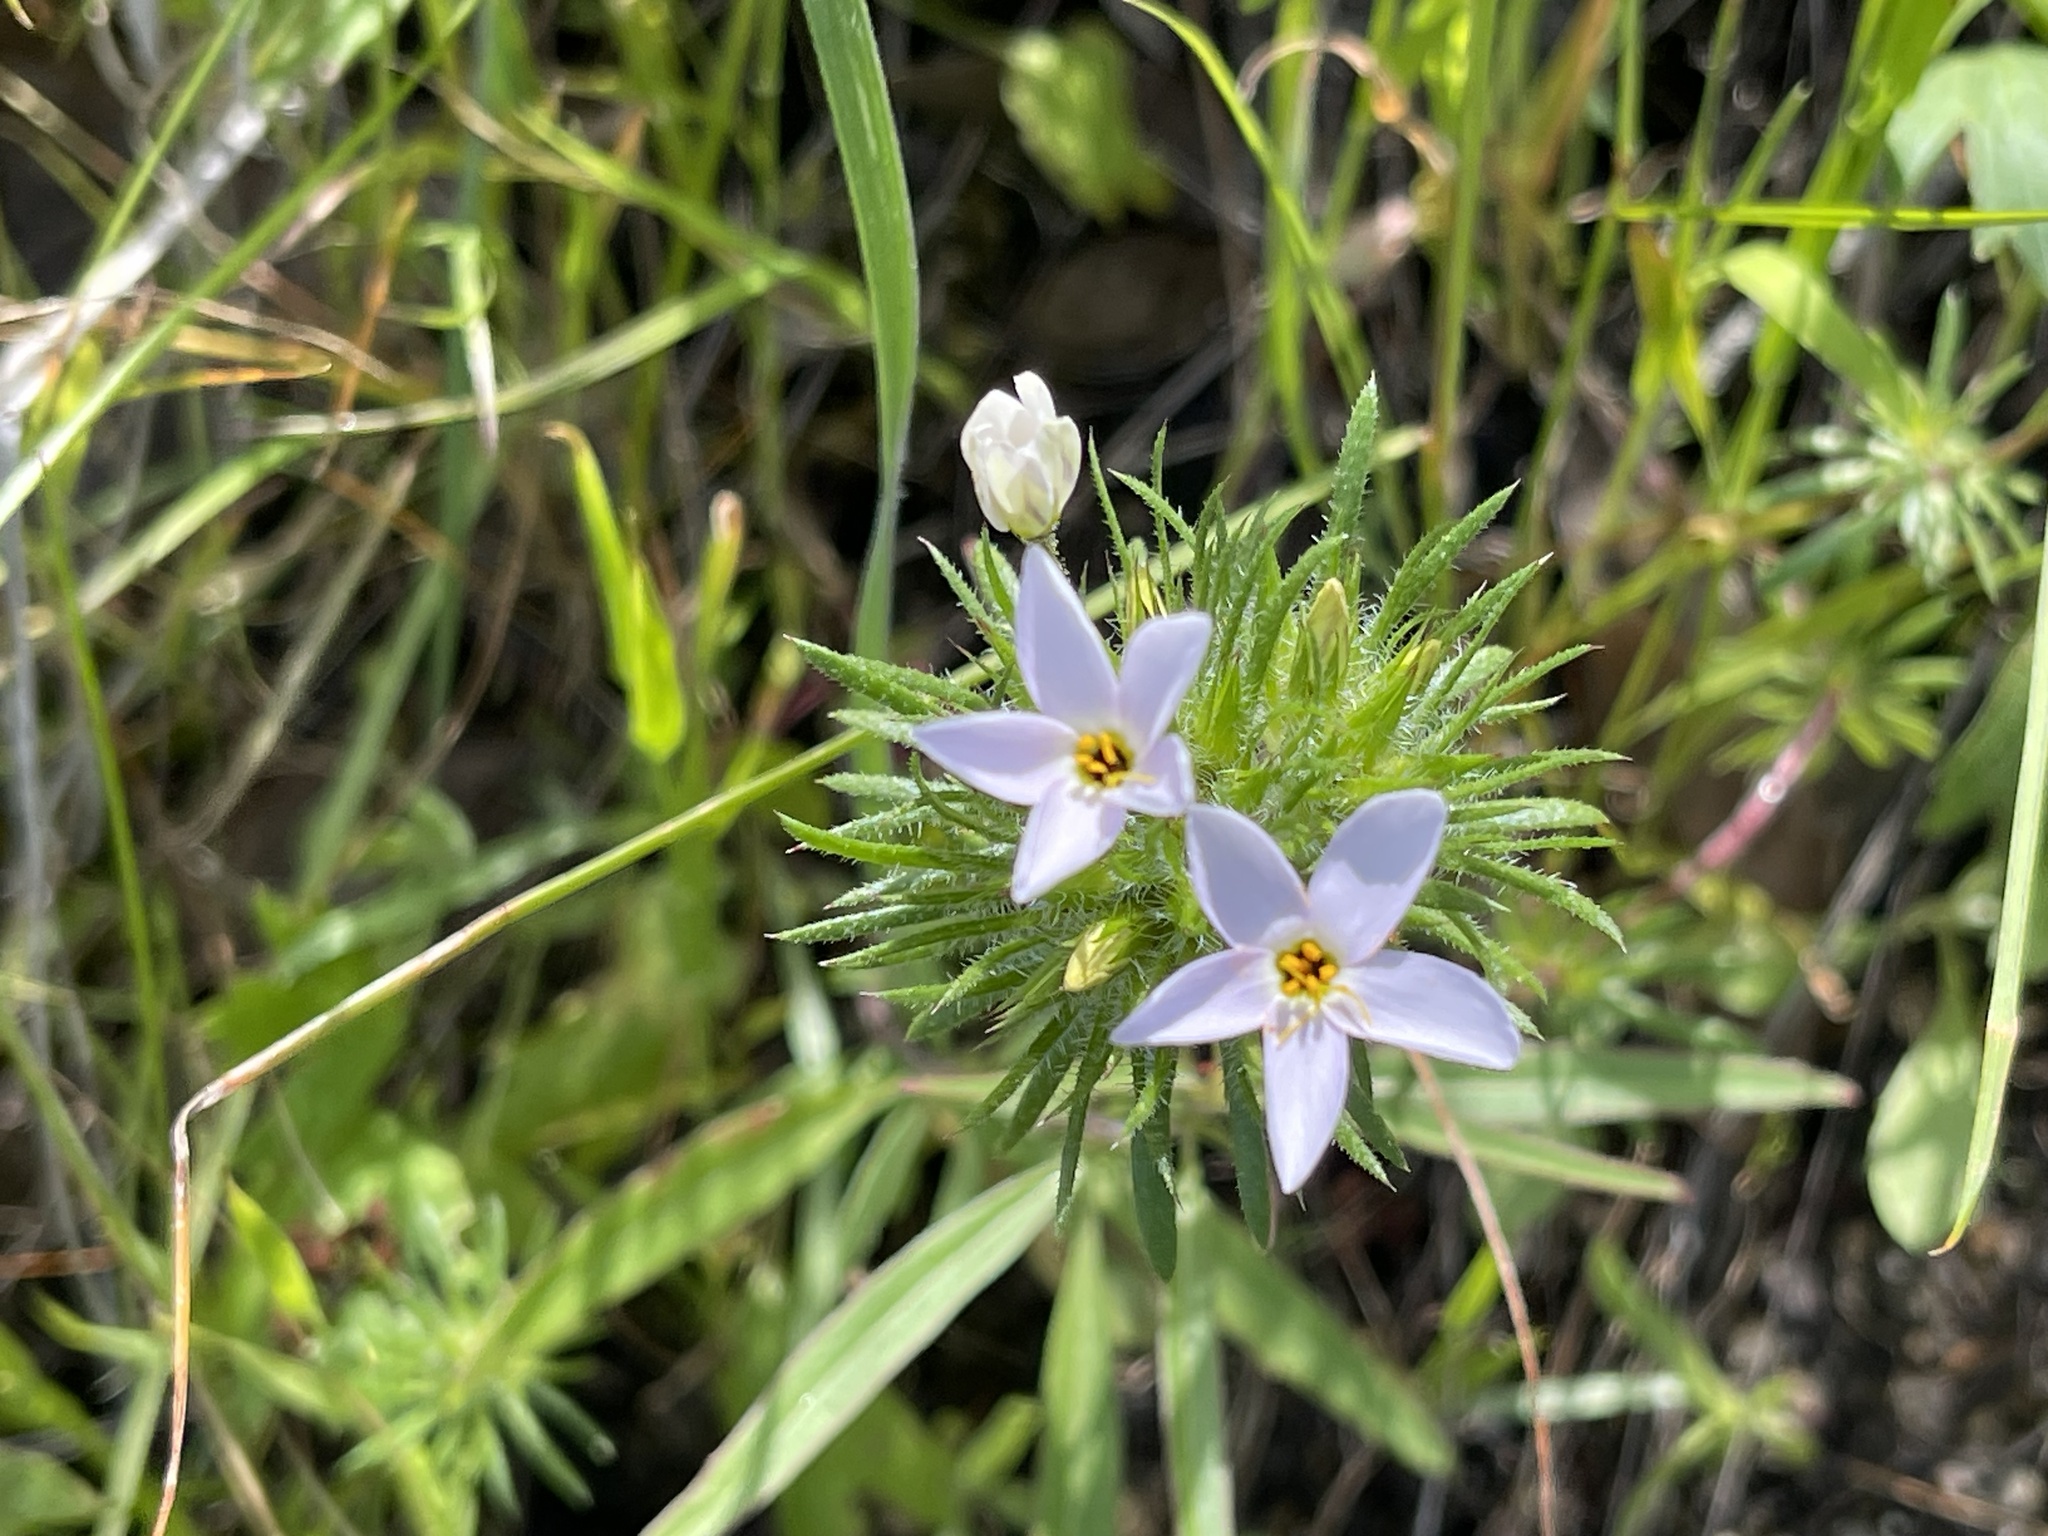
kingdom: Plantae
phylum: Tracheophyta
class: Magnoliopsida
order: Ericales
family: Polemoniaceae
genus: Leptosiphon
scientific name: Leptosiphon androsaceus
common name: False babystars
